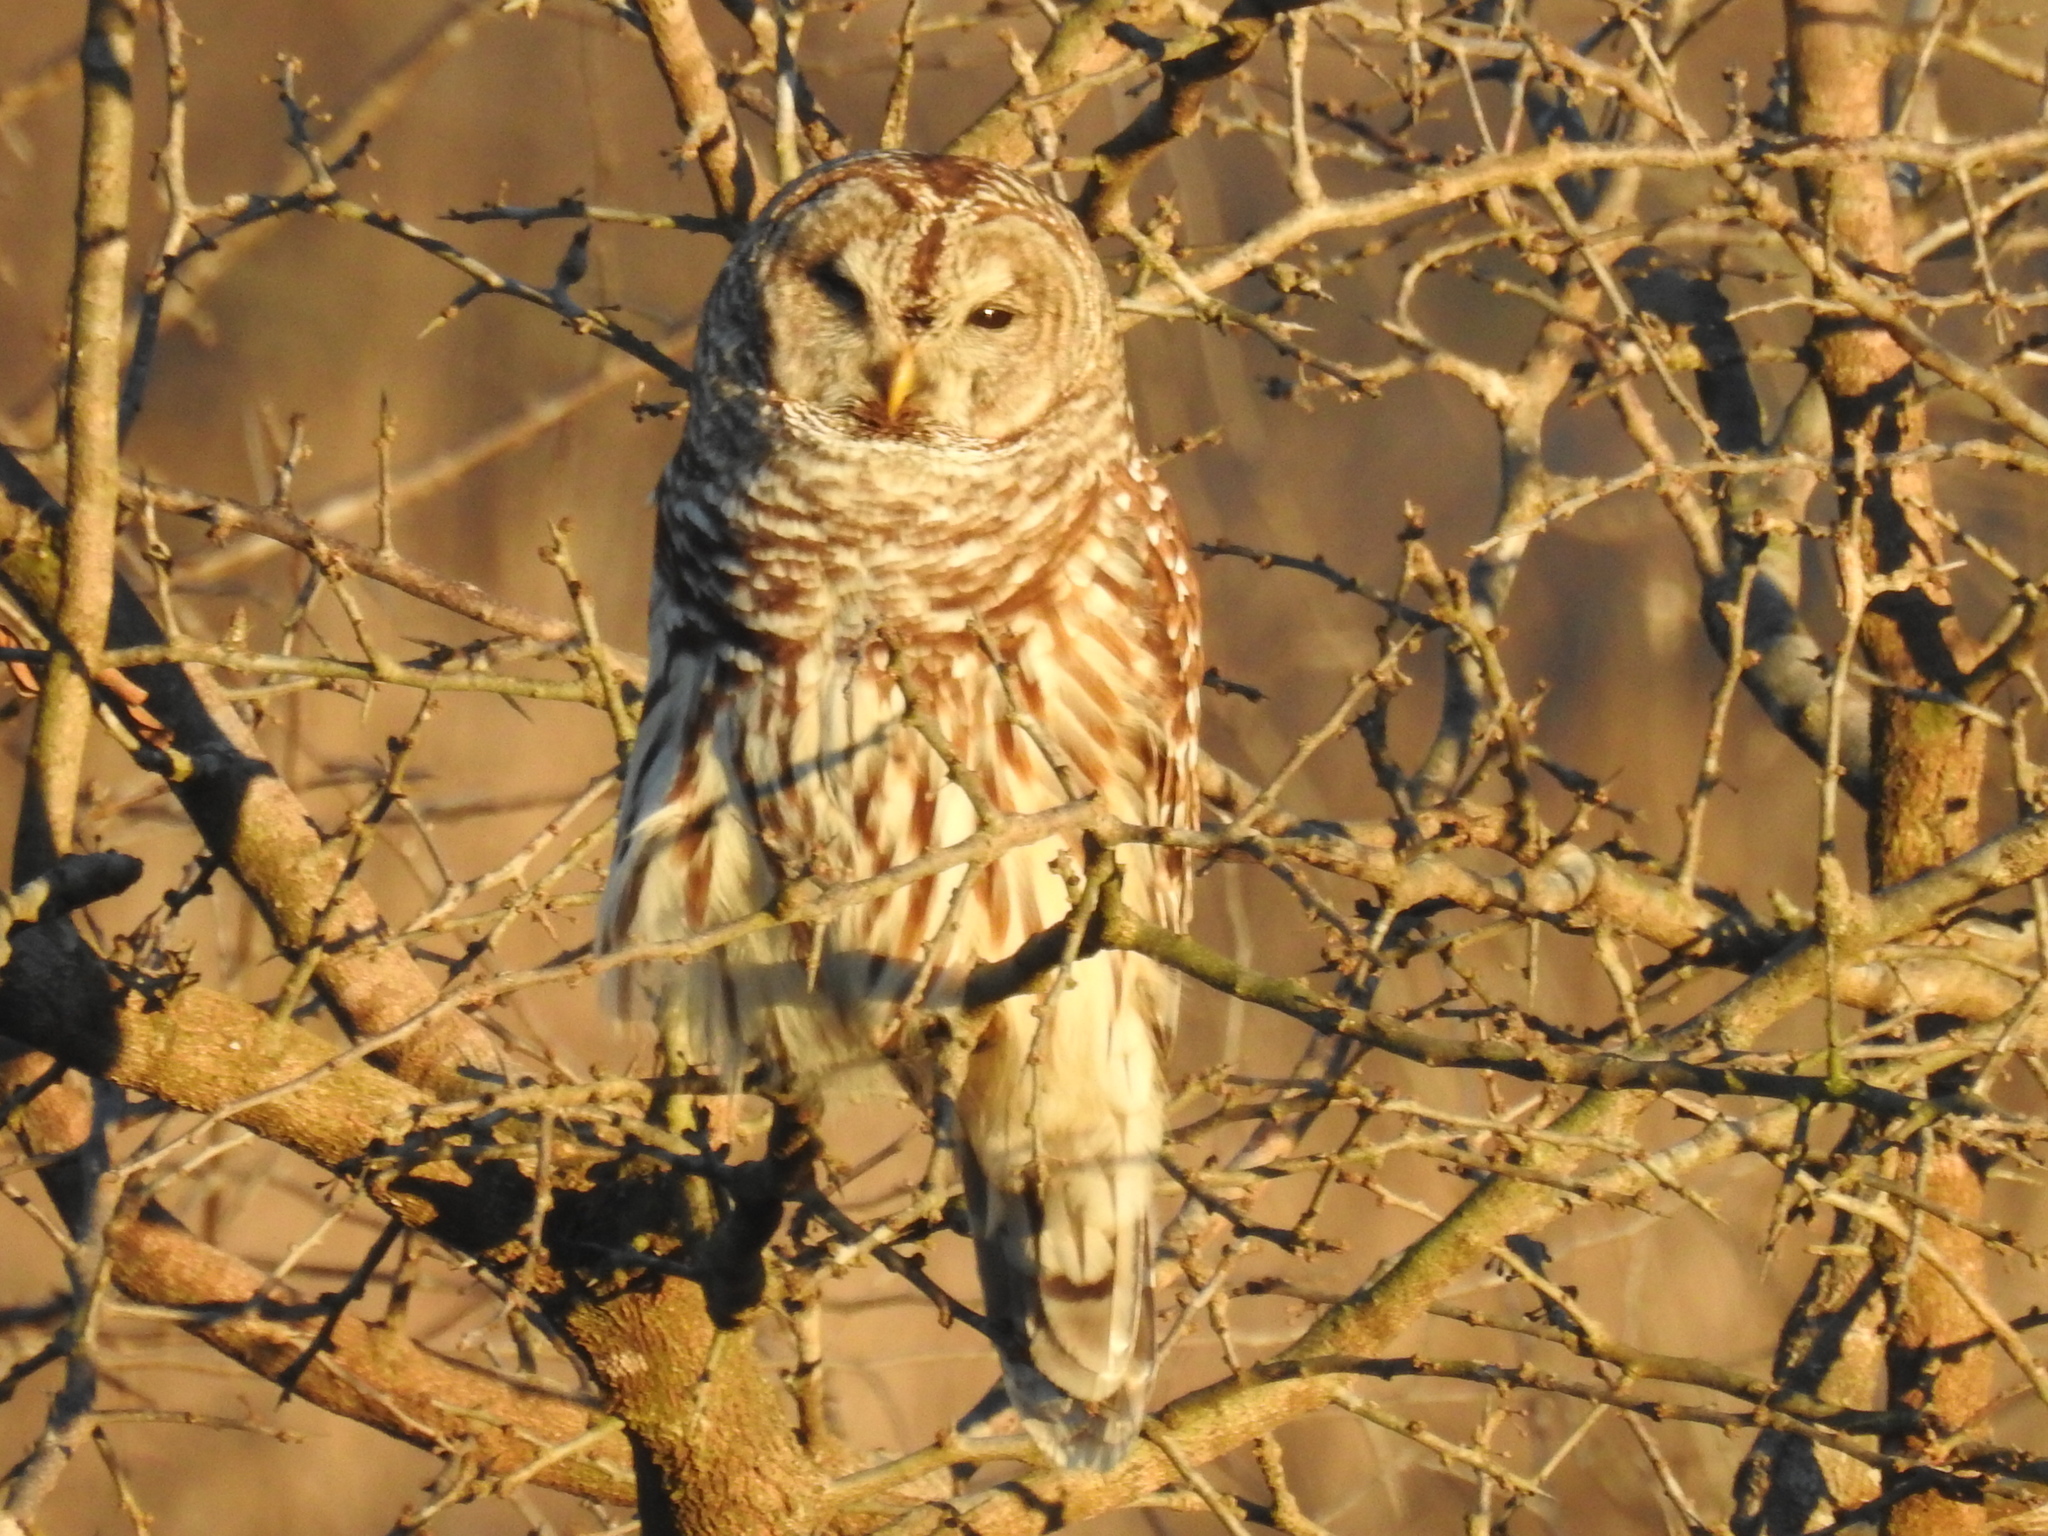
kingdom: Animalia
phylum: Chordata
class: Aves
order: Strigiformes
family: Strigidae
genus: Strix
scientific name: Strix varia
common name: Barred owl
